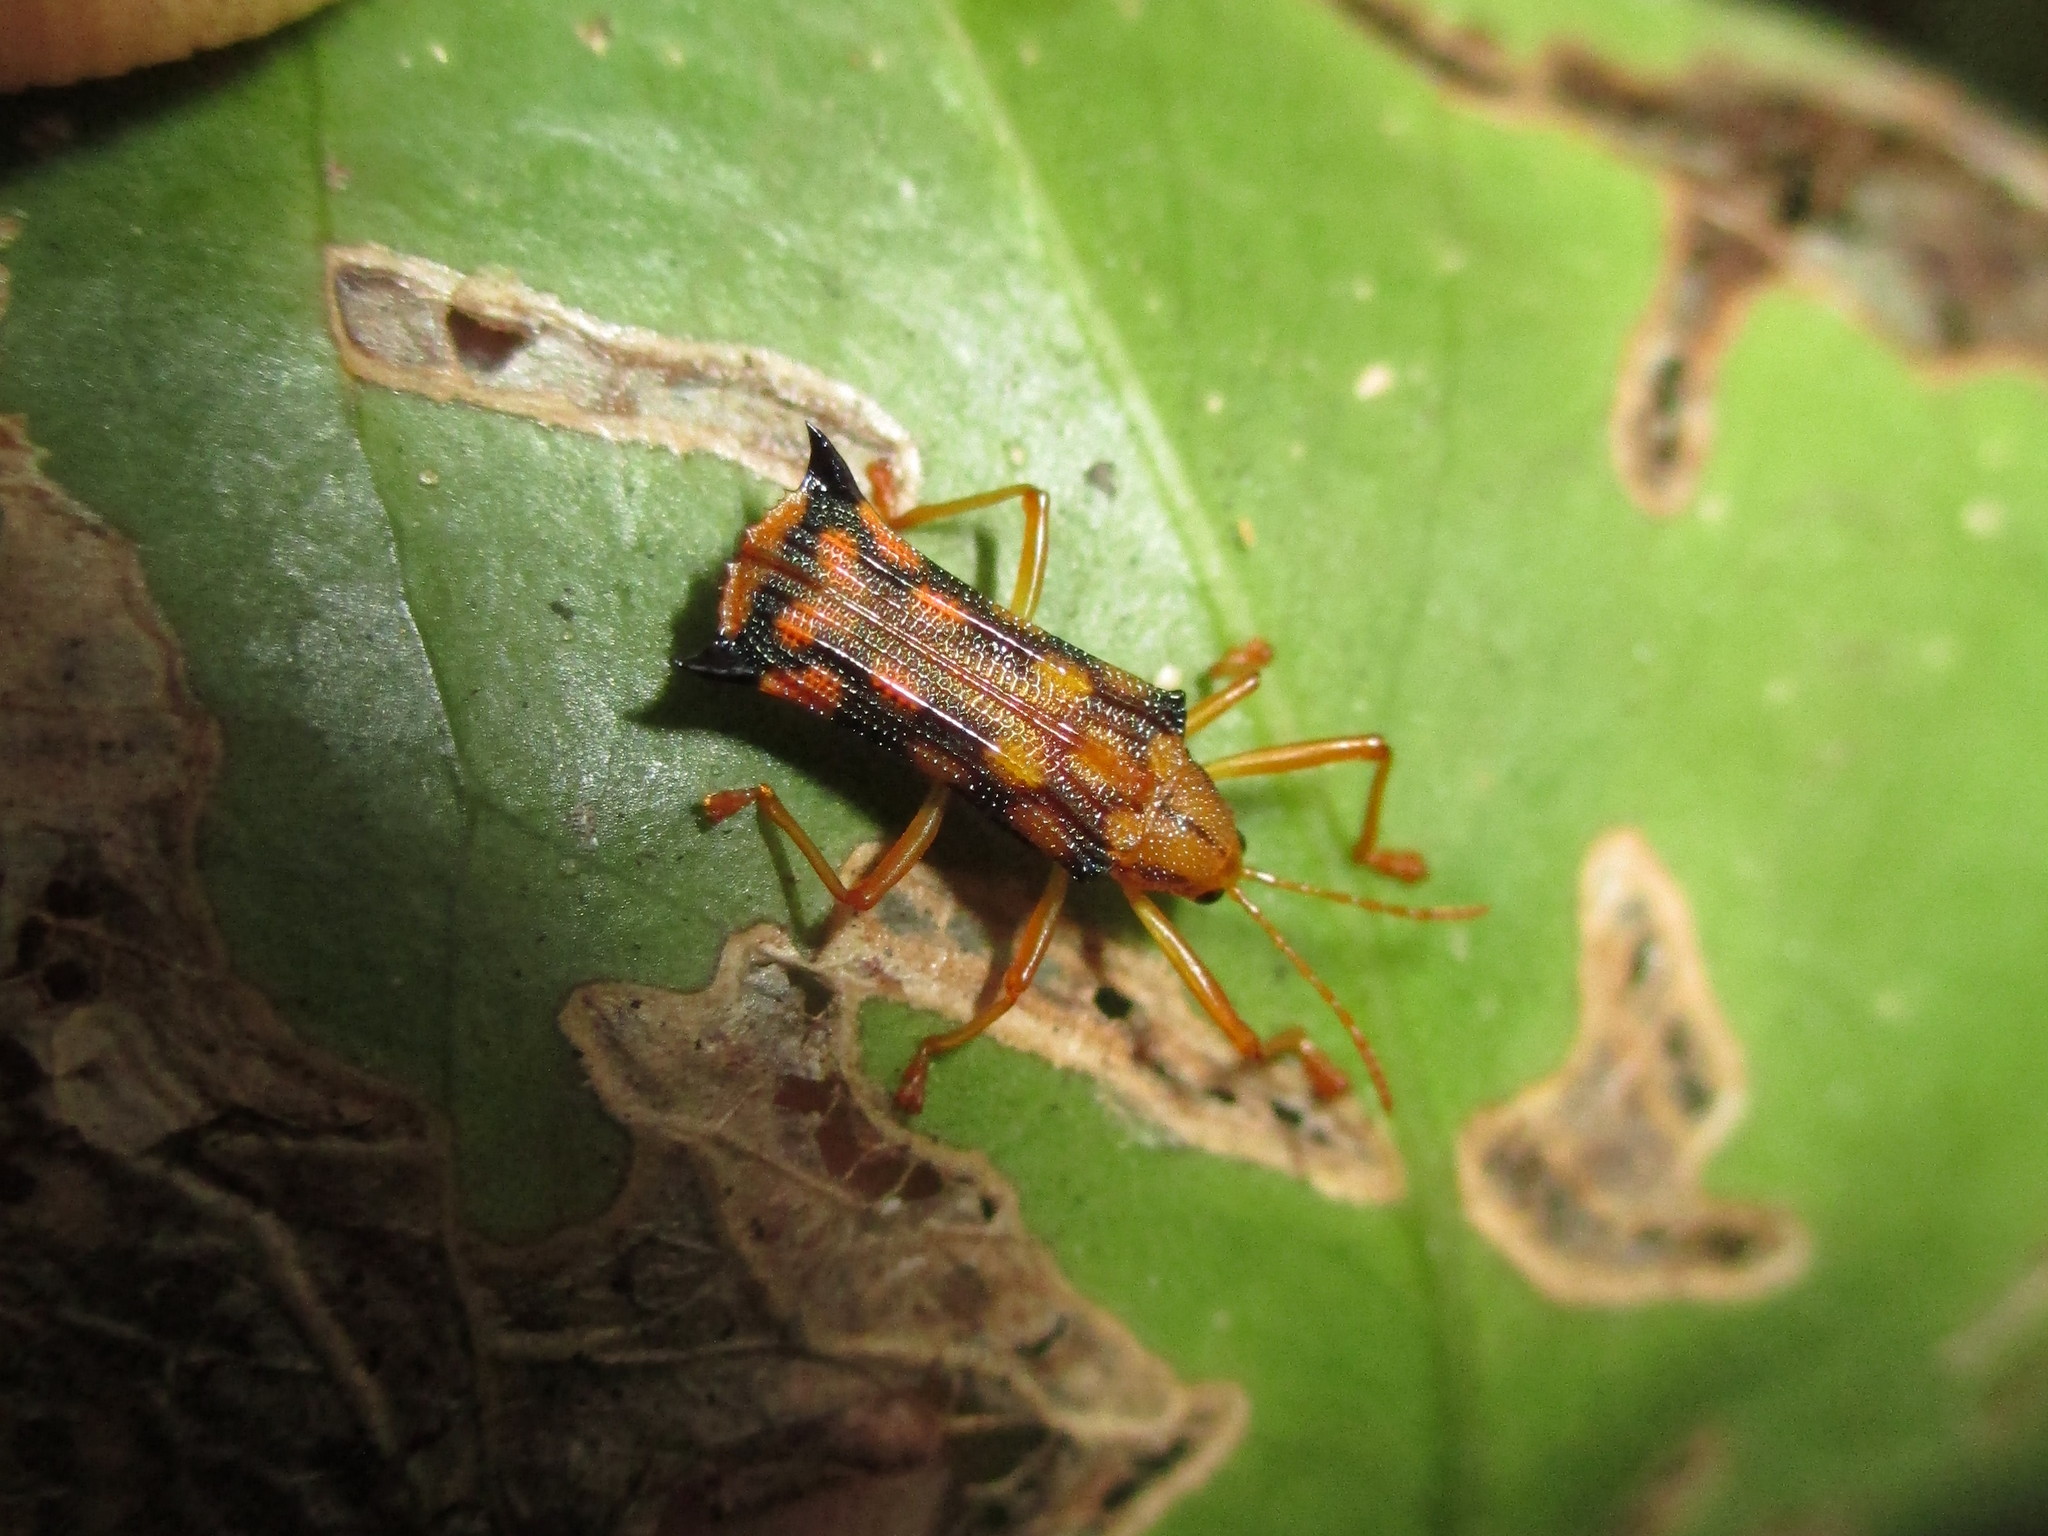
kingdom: Animalia
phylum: Arthropoda
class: Insecta
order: Coleoptera
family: Chrysomelidae
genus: Sceloenopla
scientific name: Sceloenopla pretiosa
